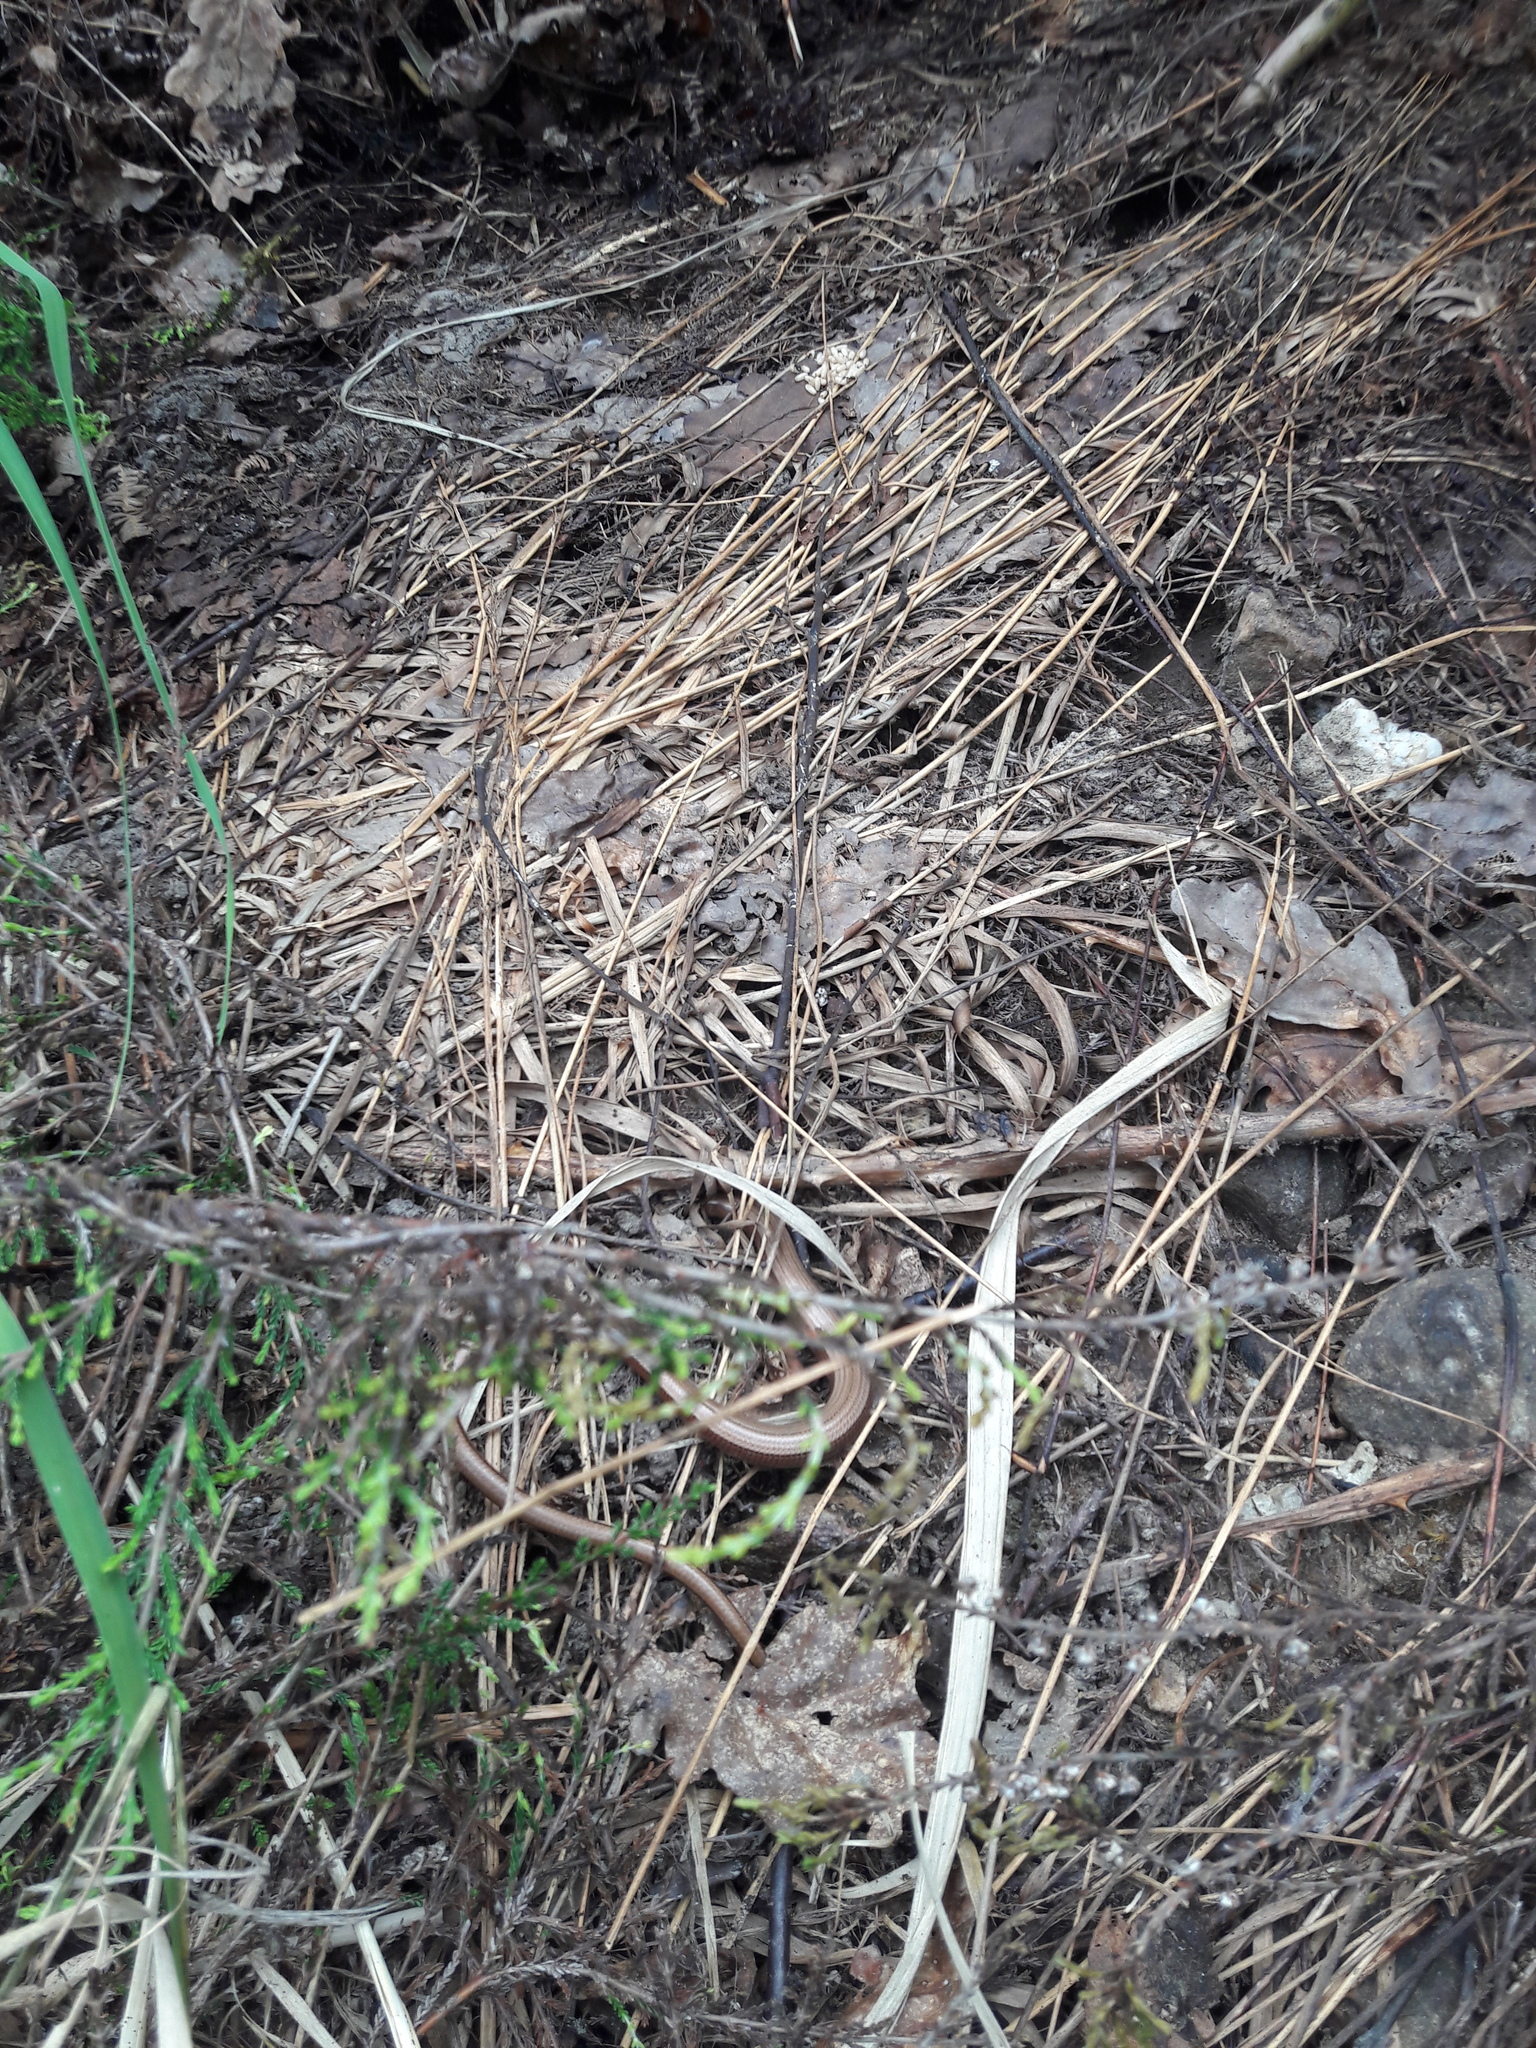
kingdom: Animalia
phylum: Chordata
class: Squamata
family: Anguidae
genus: Anguis
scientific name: Anguis fragilis
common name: Slow worm
